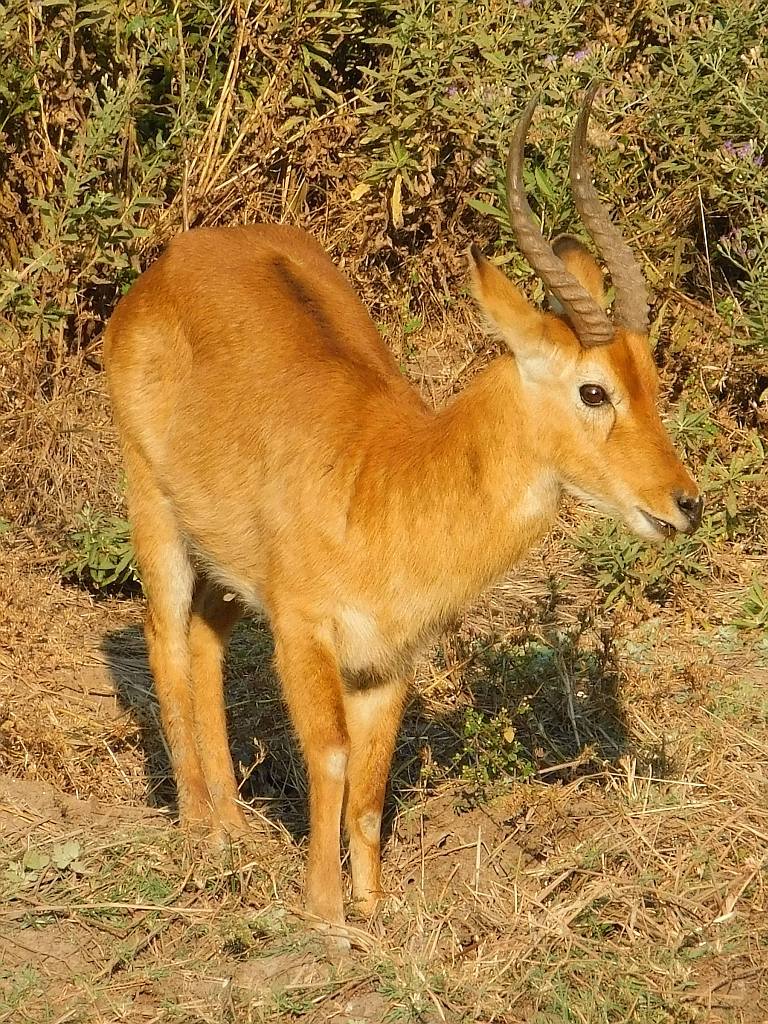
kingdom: Animalia
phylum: Chordata
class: Mammalia
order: Artiodactyla
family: Bovidae
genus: Kobus
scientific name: Kobus vardonii
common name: Puku
